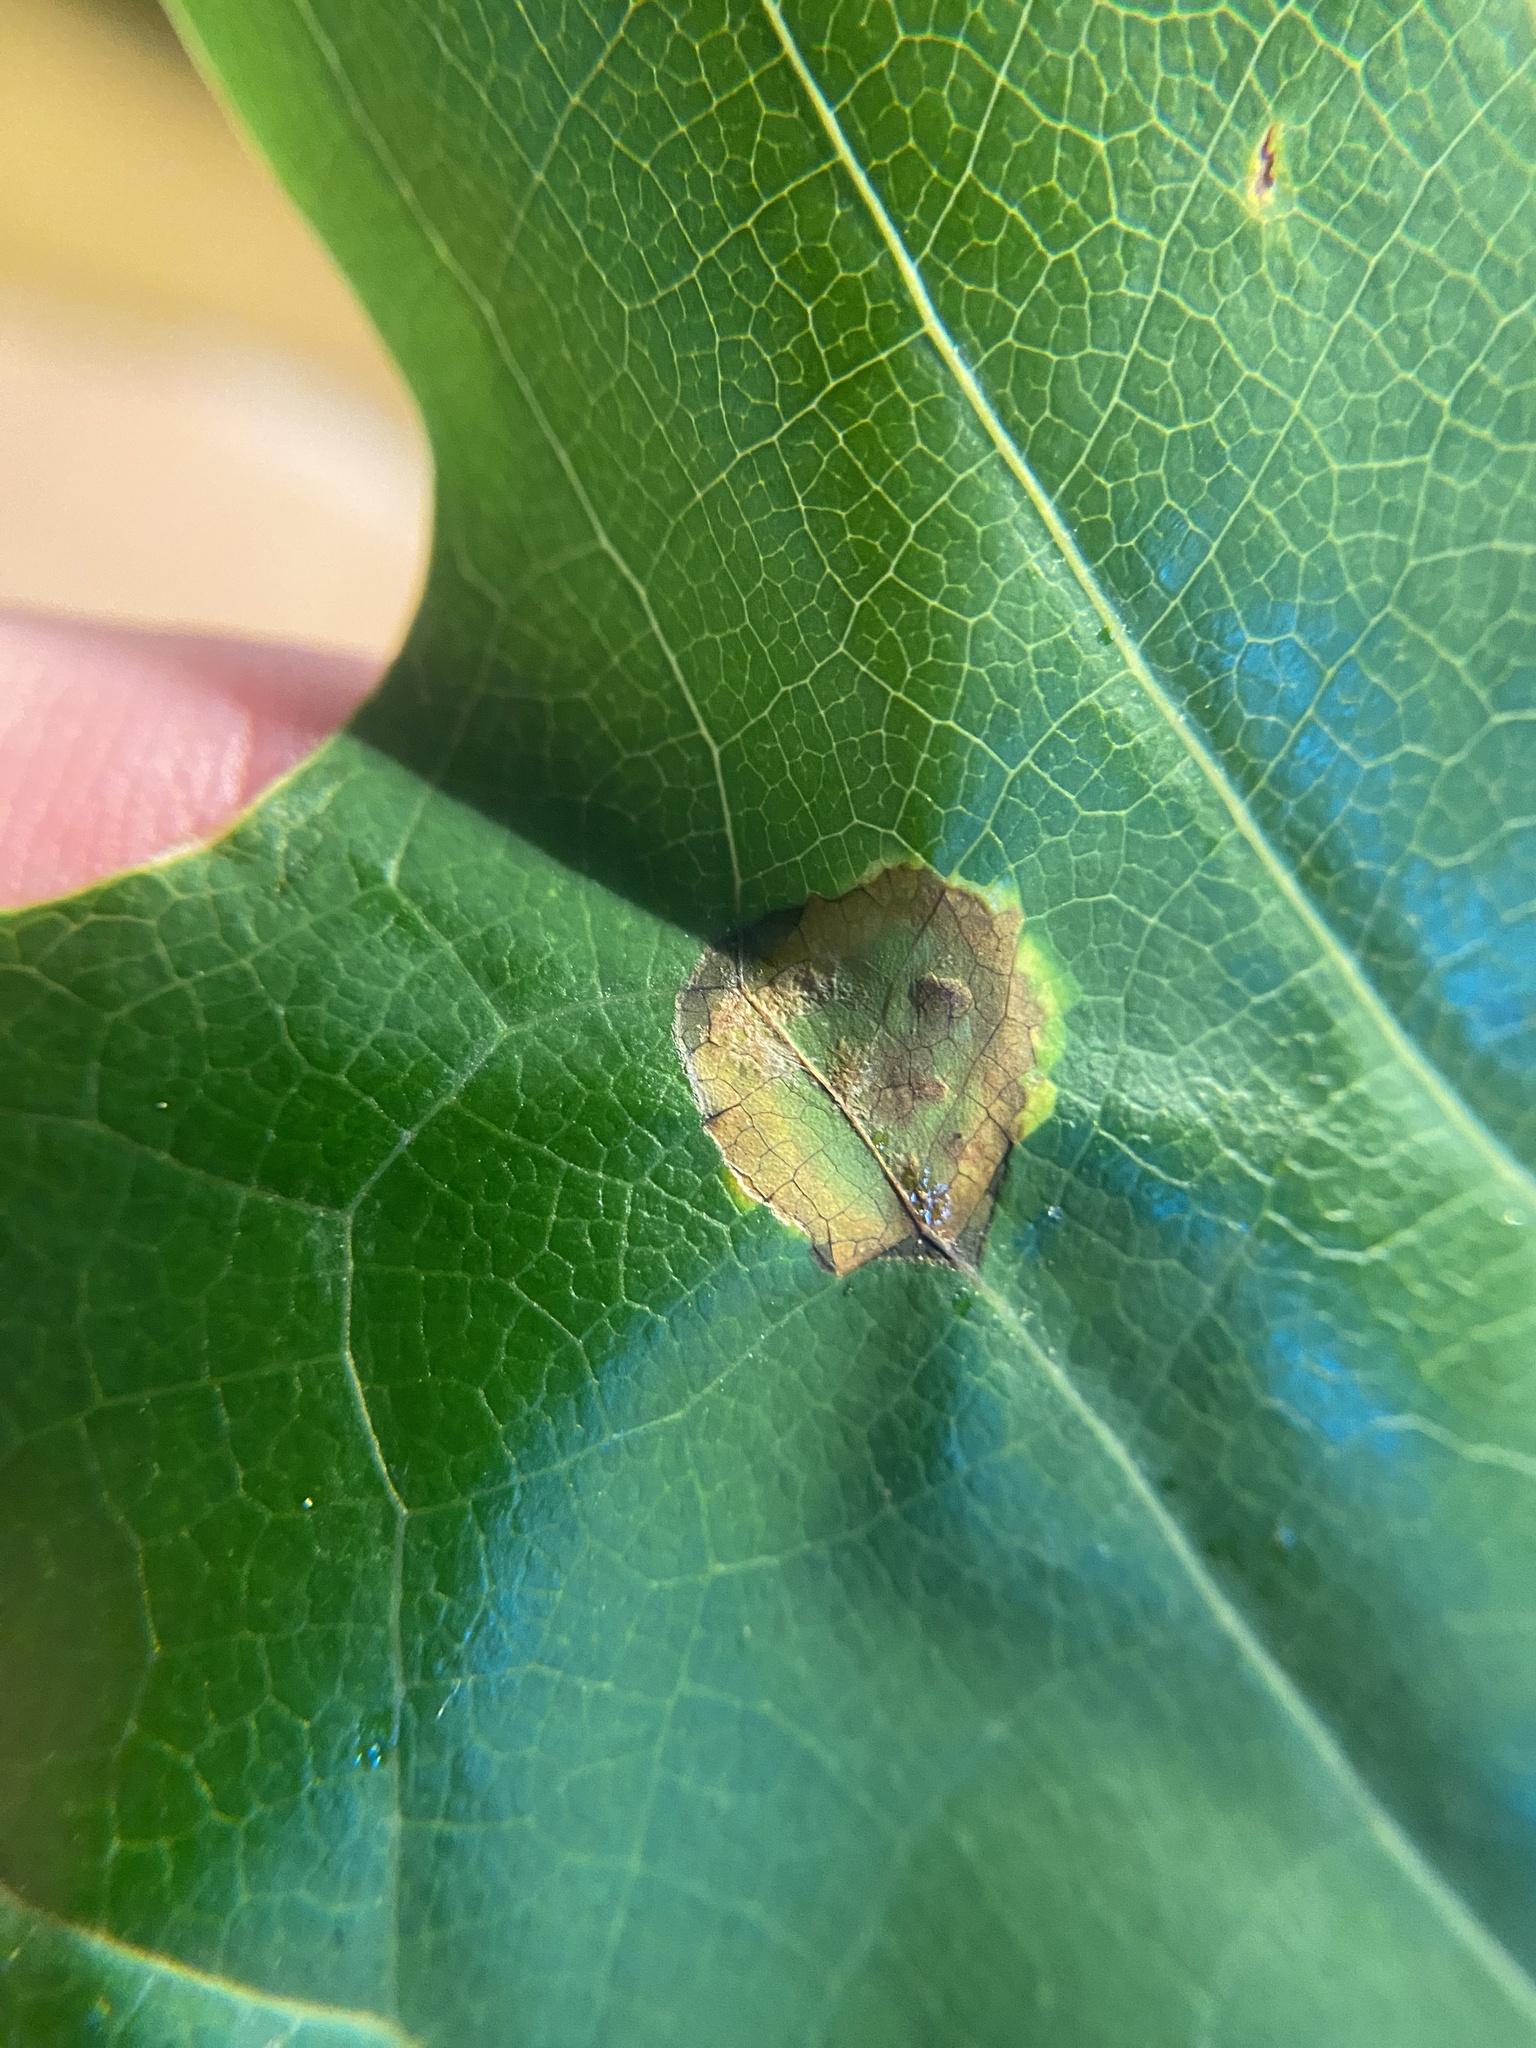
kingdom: Animalia
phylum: Arthropoda
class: Insecta
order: Diptera
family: Cecidomyiidae
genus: Resseliella
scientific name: Resseliella liriodendri
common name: Tulip tree leaf spot gall midge
